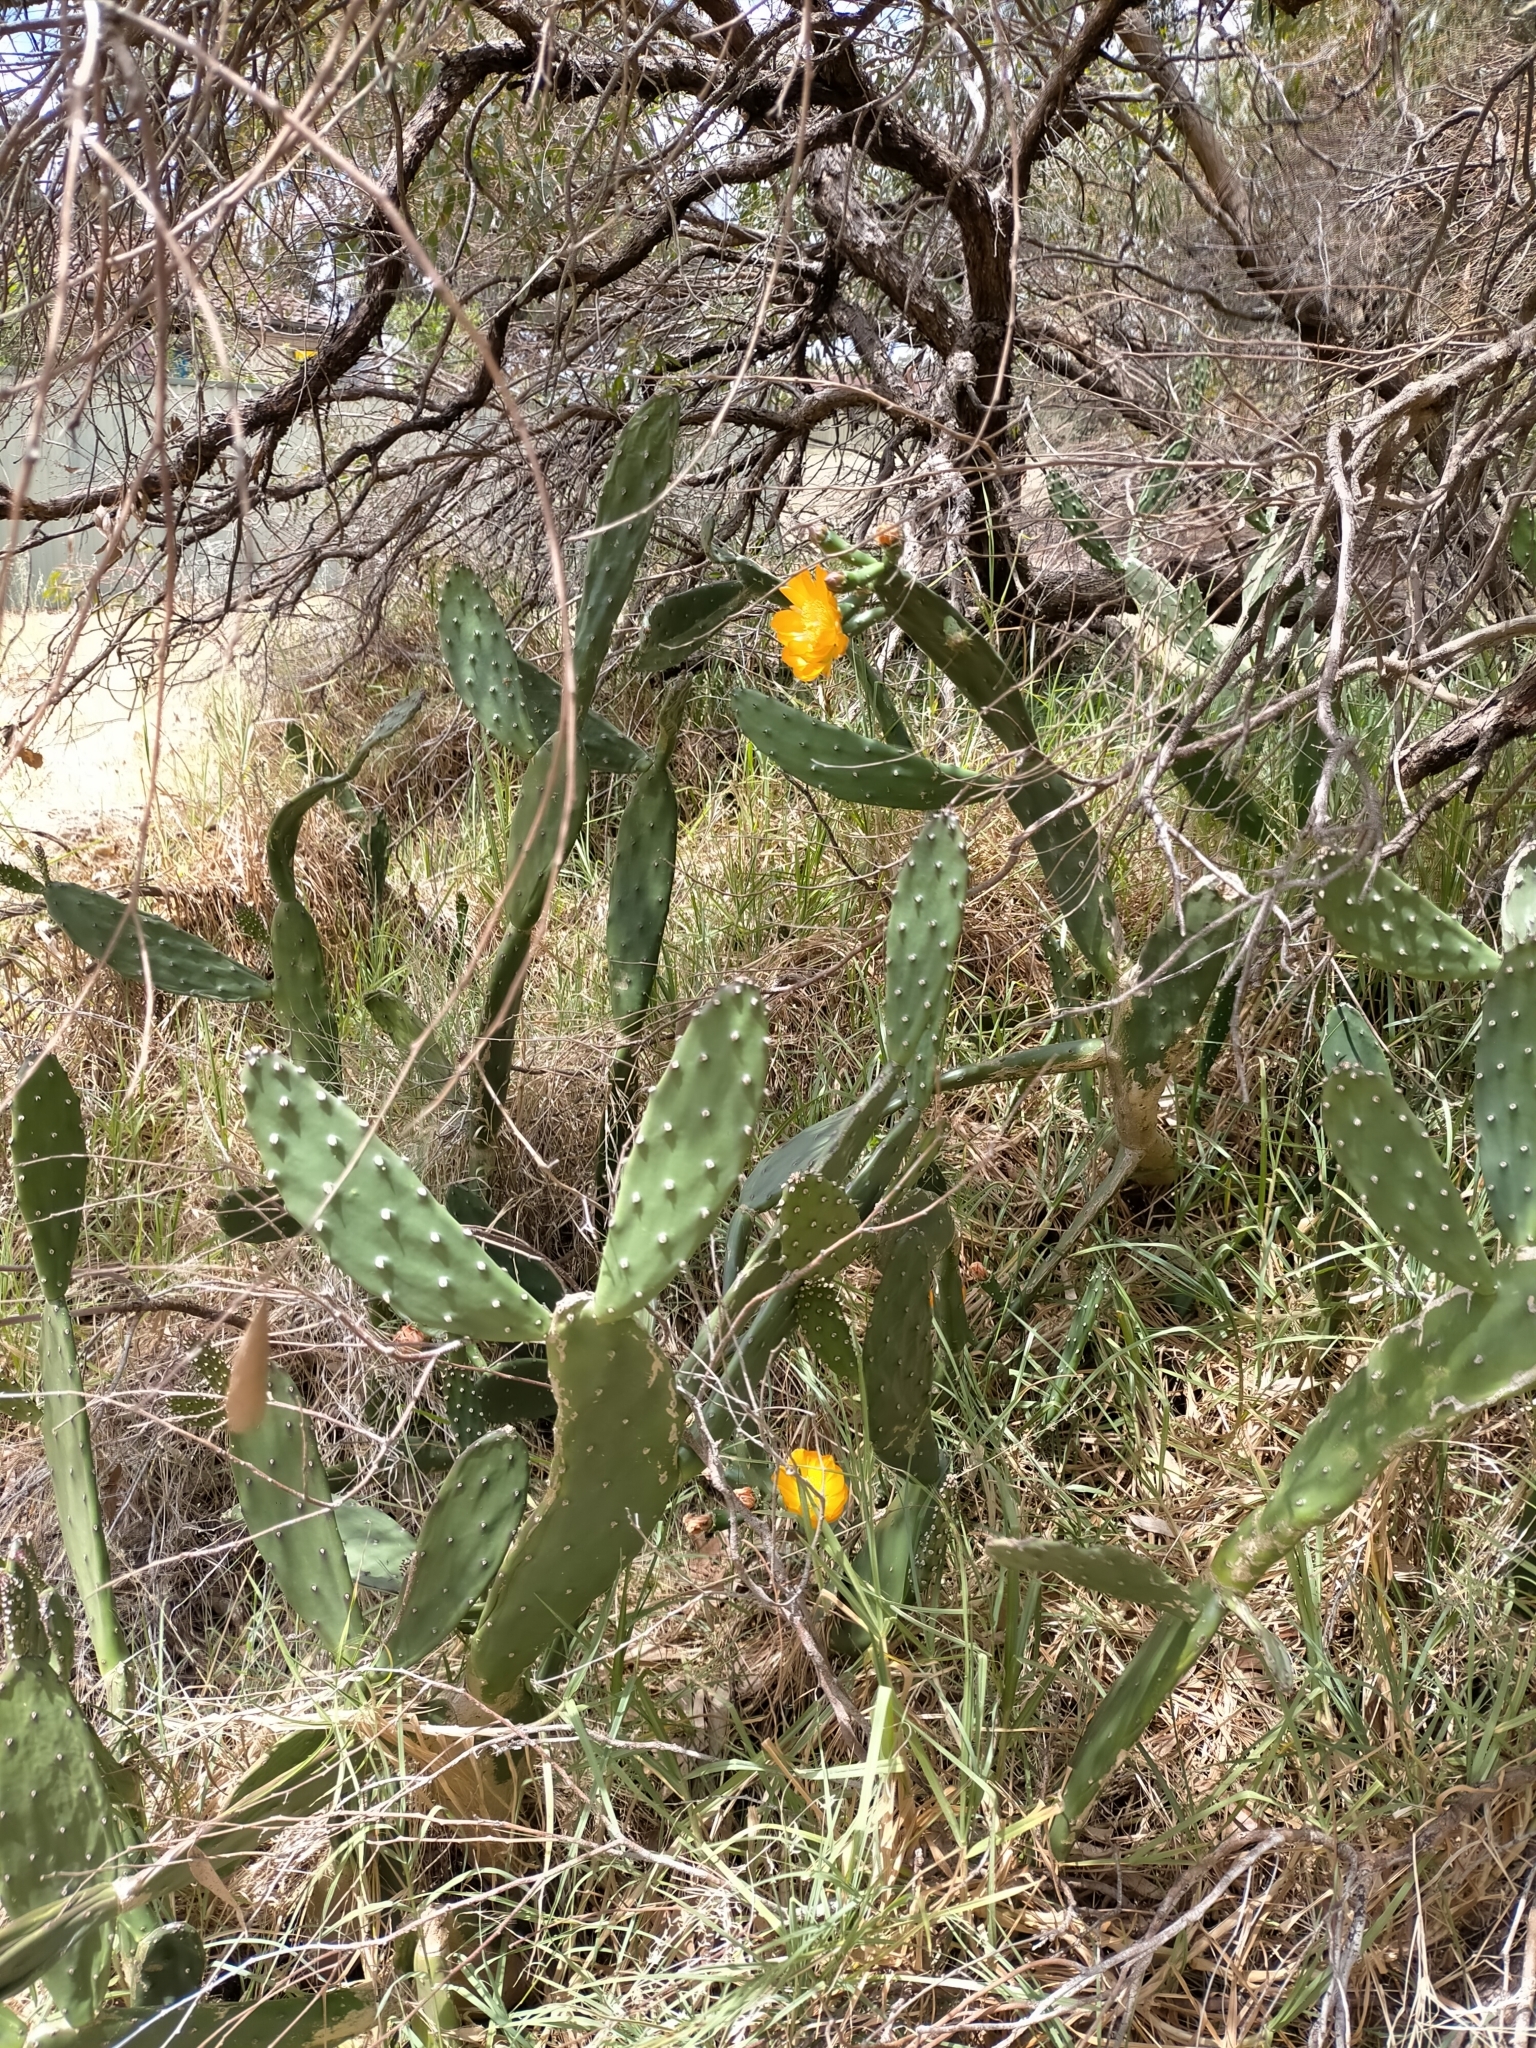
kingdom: Plantae
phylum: Tracheophyta
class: Magnoliopsida
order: Caryophyllales
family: Cactaceae
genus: Opuntia
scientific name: Opuntia elata
